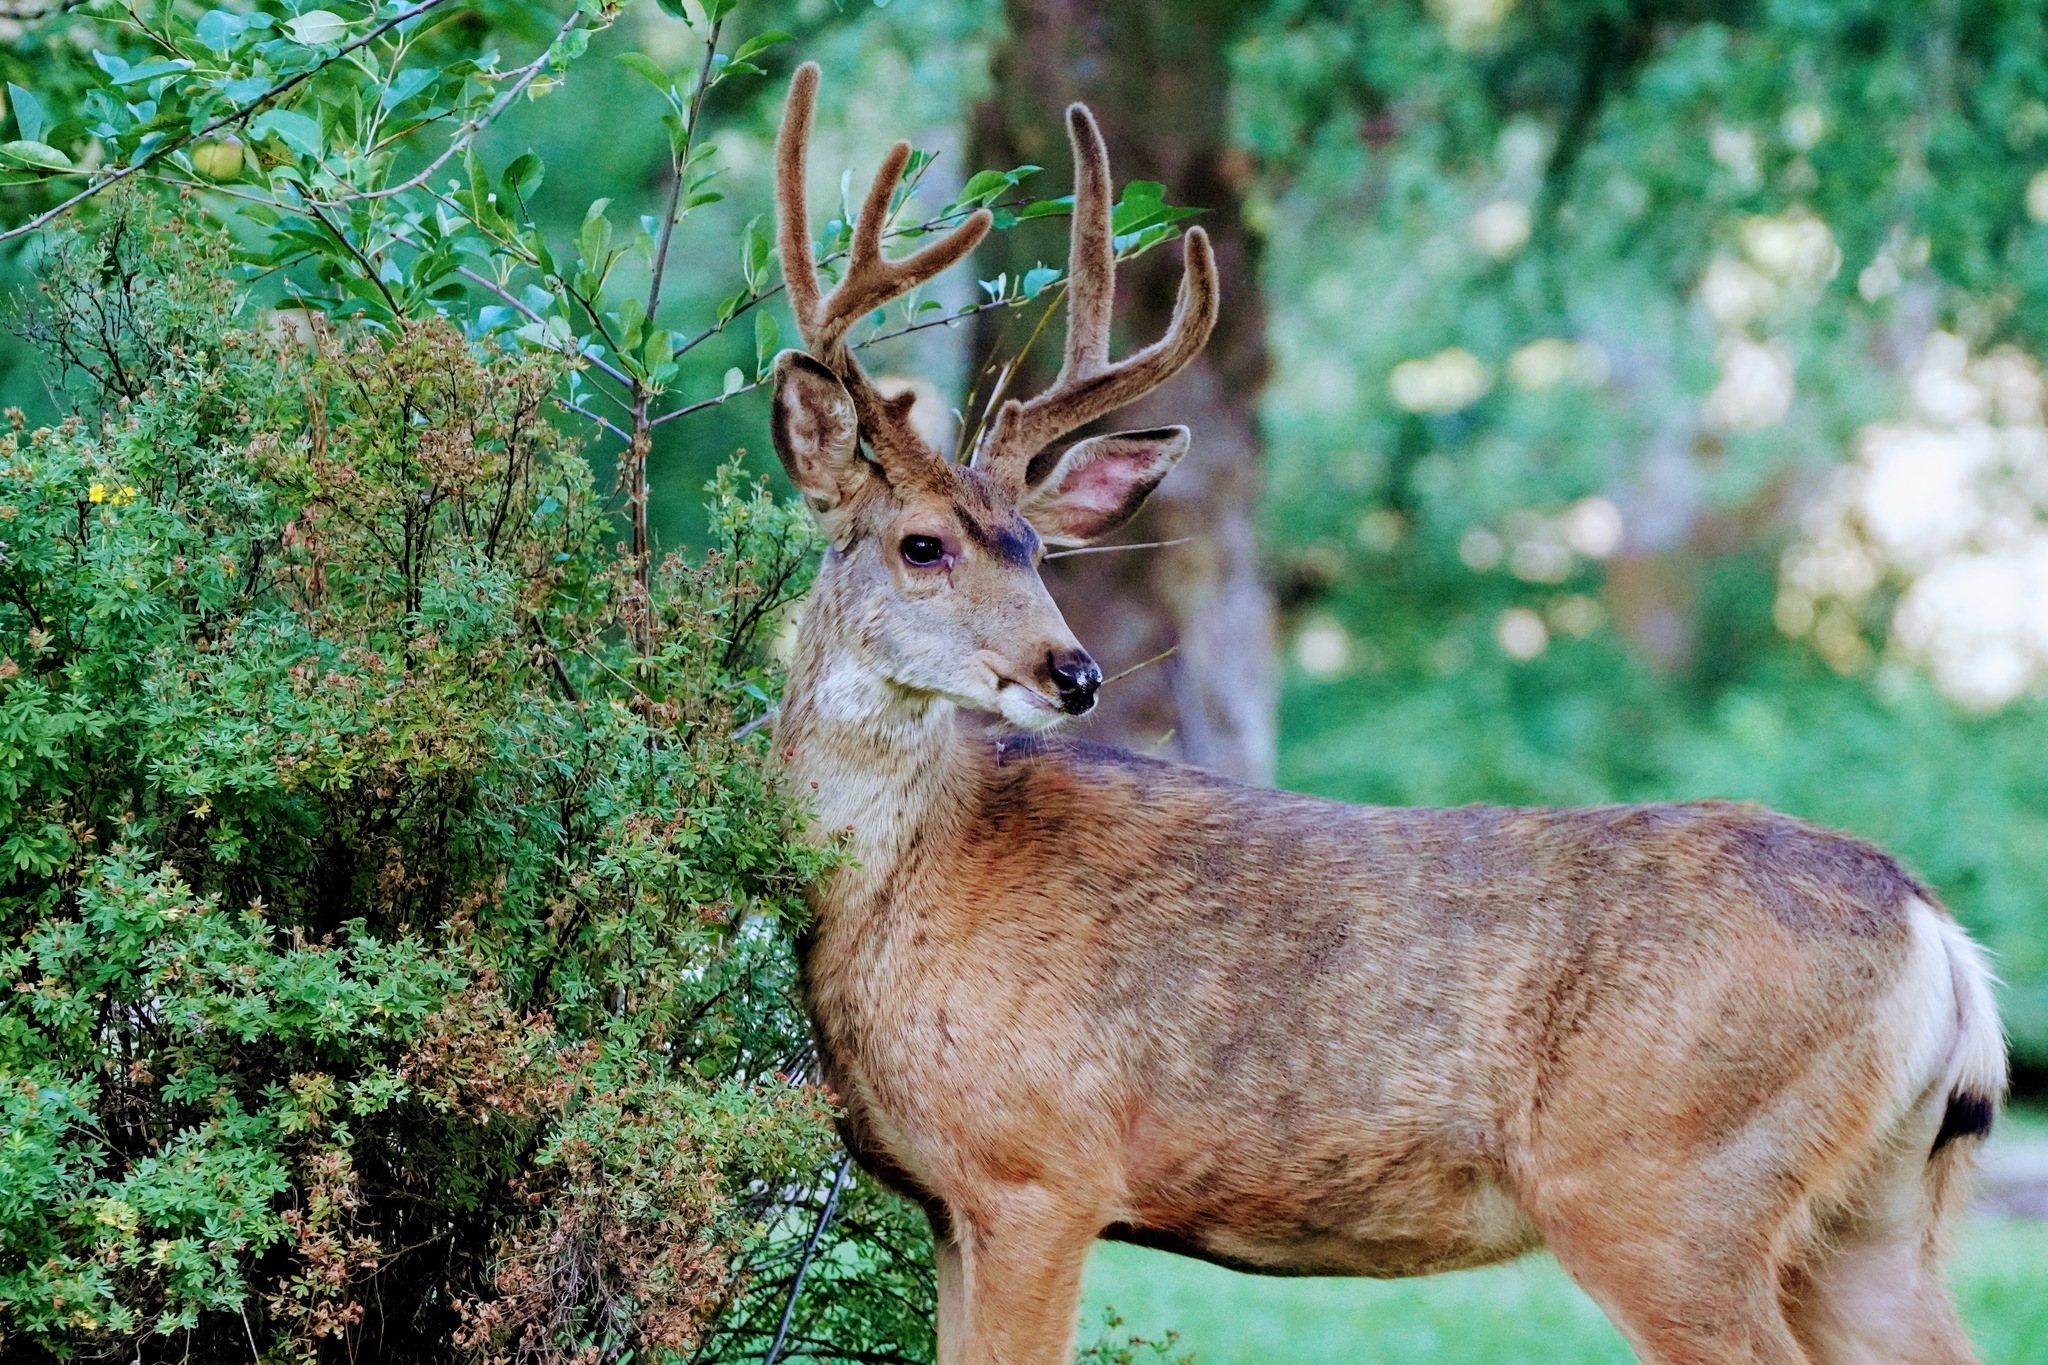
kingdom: Animalia
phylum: Chordata
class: Mammalia
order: Artiodactyla
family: Cervidae
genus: Odocoileus
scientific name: Odocoileus hemionus
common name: Mule deer
